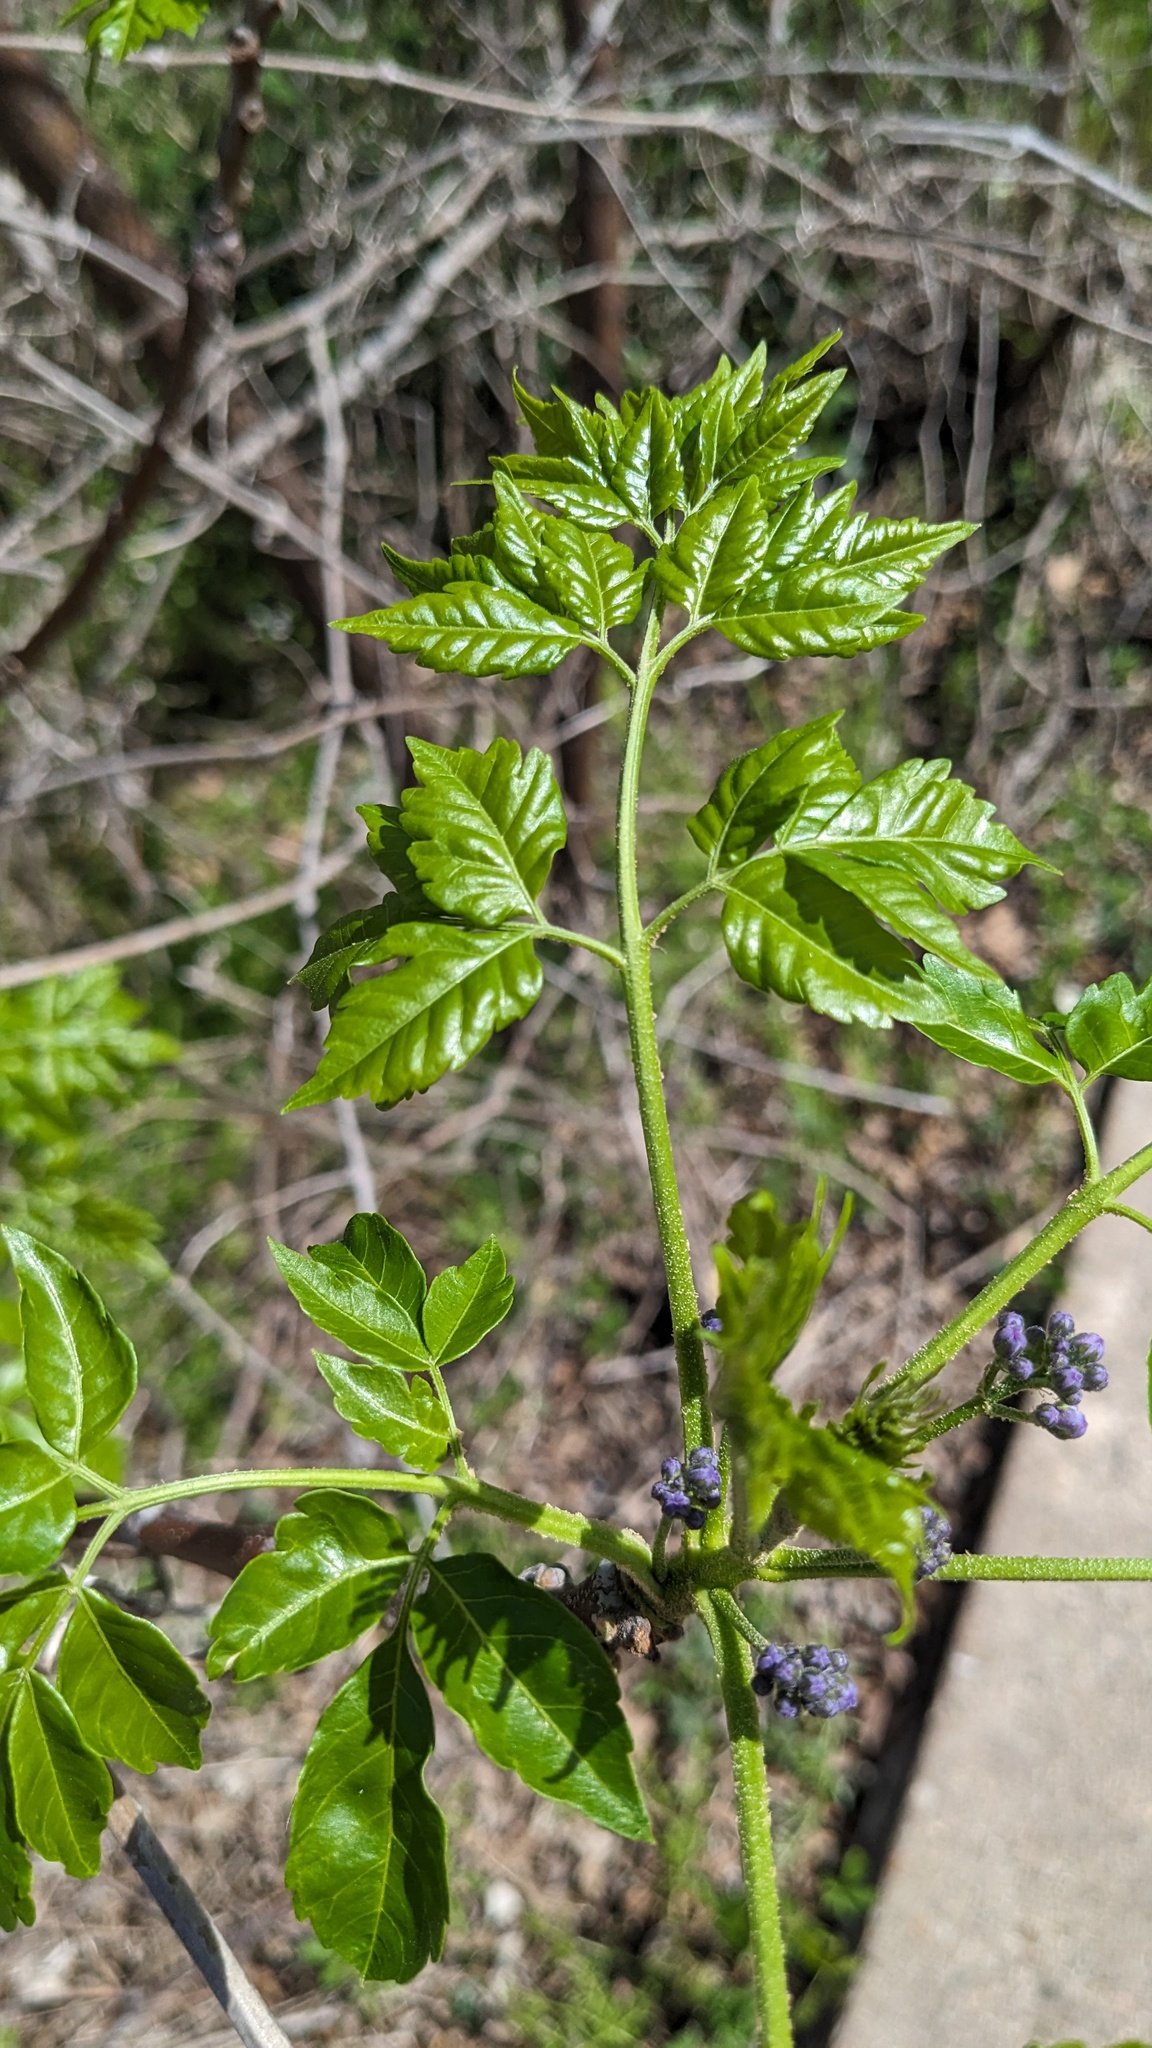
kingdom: Plantae
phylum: Tracheophyta
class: Magnoliopsida
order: Sapindales
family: Meliaceae
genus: Melia
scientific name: Melia azedarach
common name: Chinaberrytree
